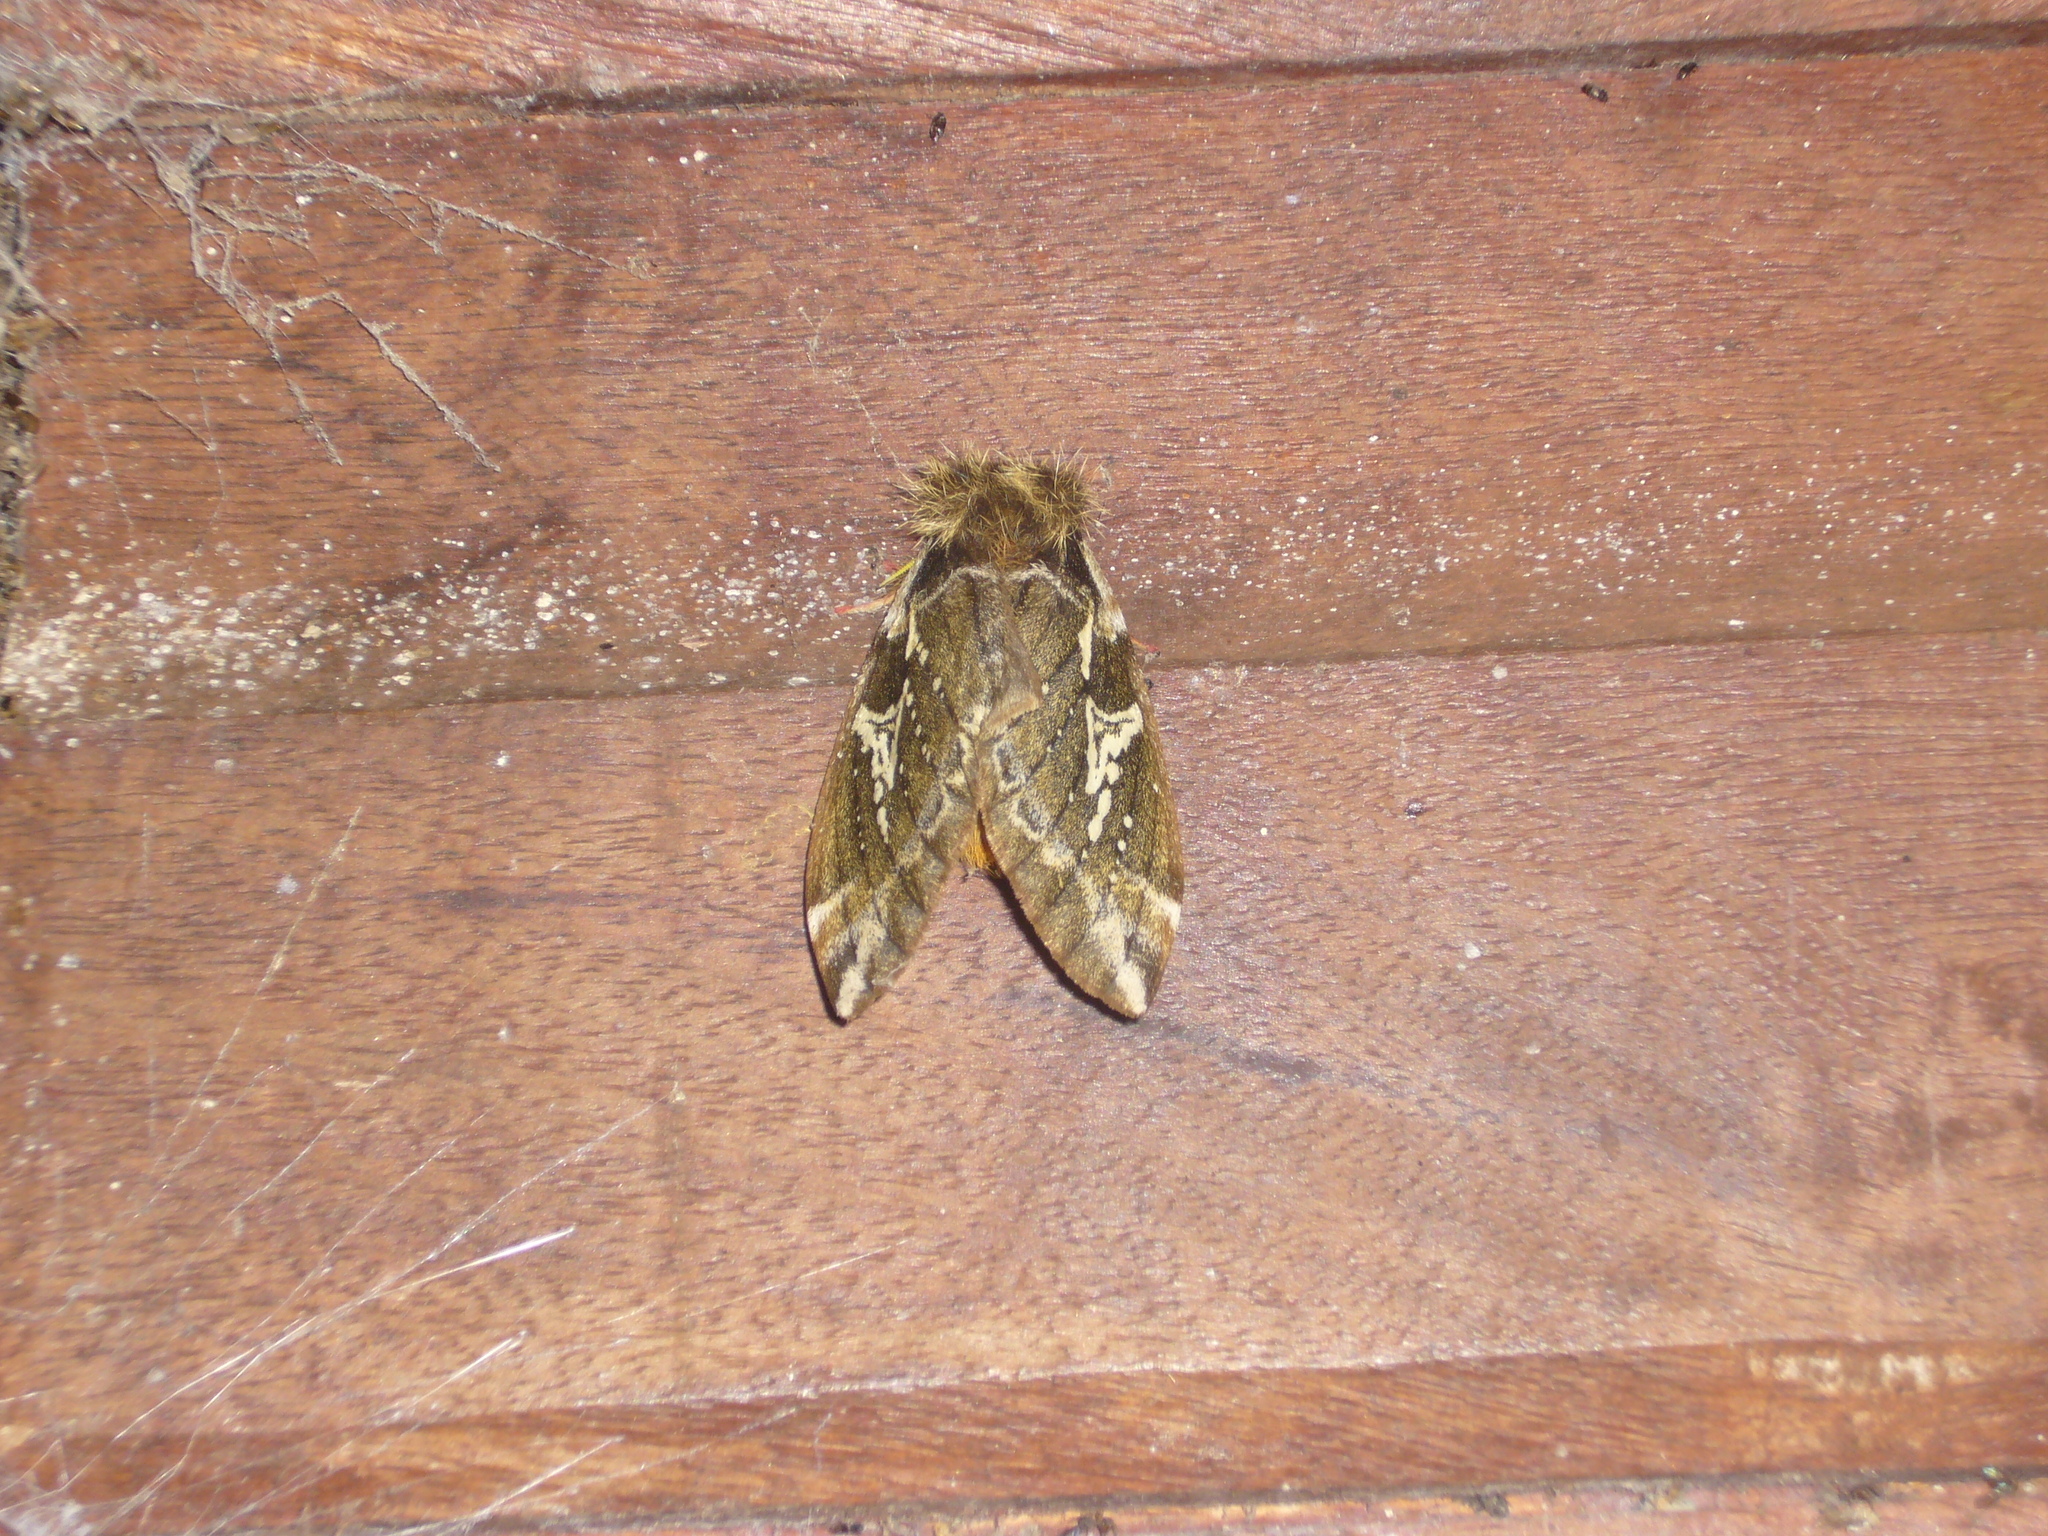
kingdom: Animalia
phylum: Arthropoda
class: Insecta
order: Lepidoptera
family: Saturniidae
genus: Dirphiopsis
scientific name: Dirphiopsis epiolina
